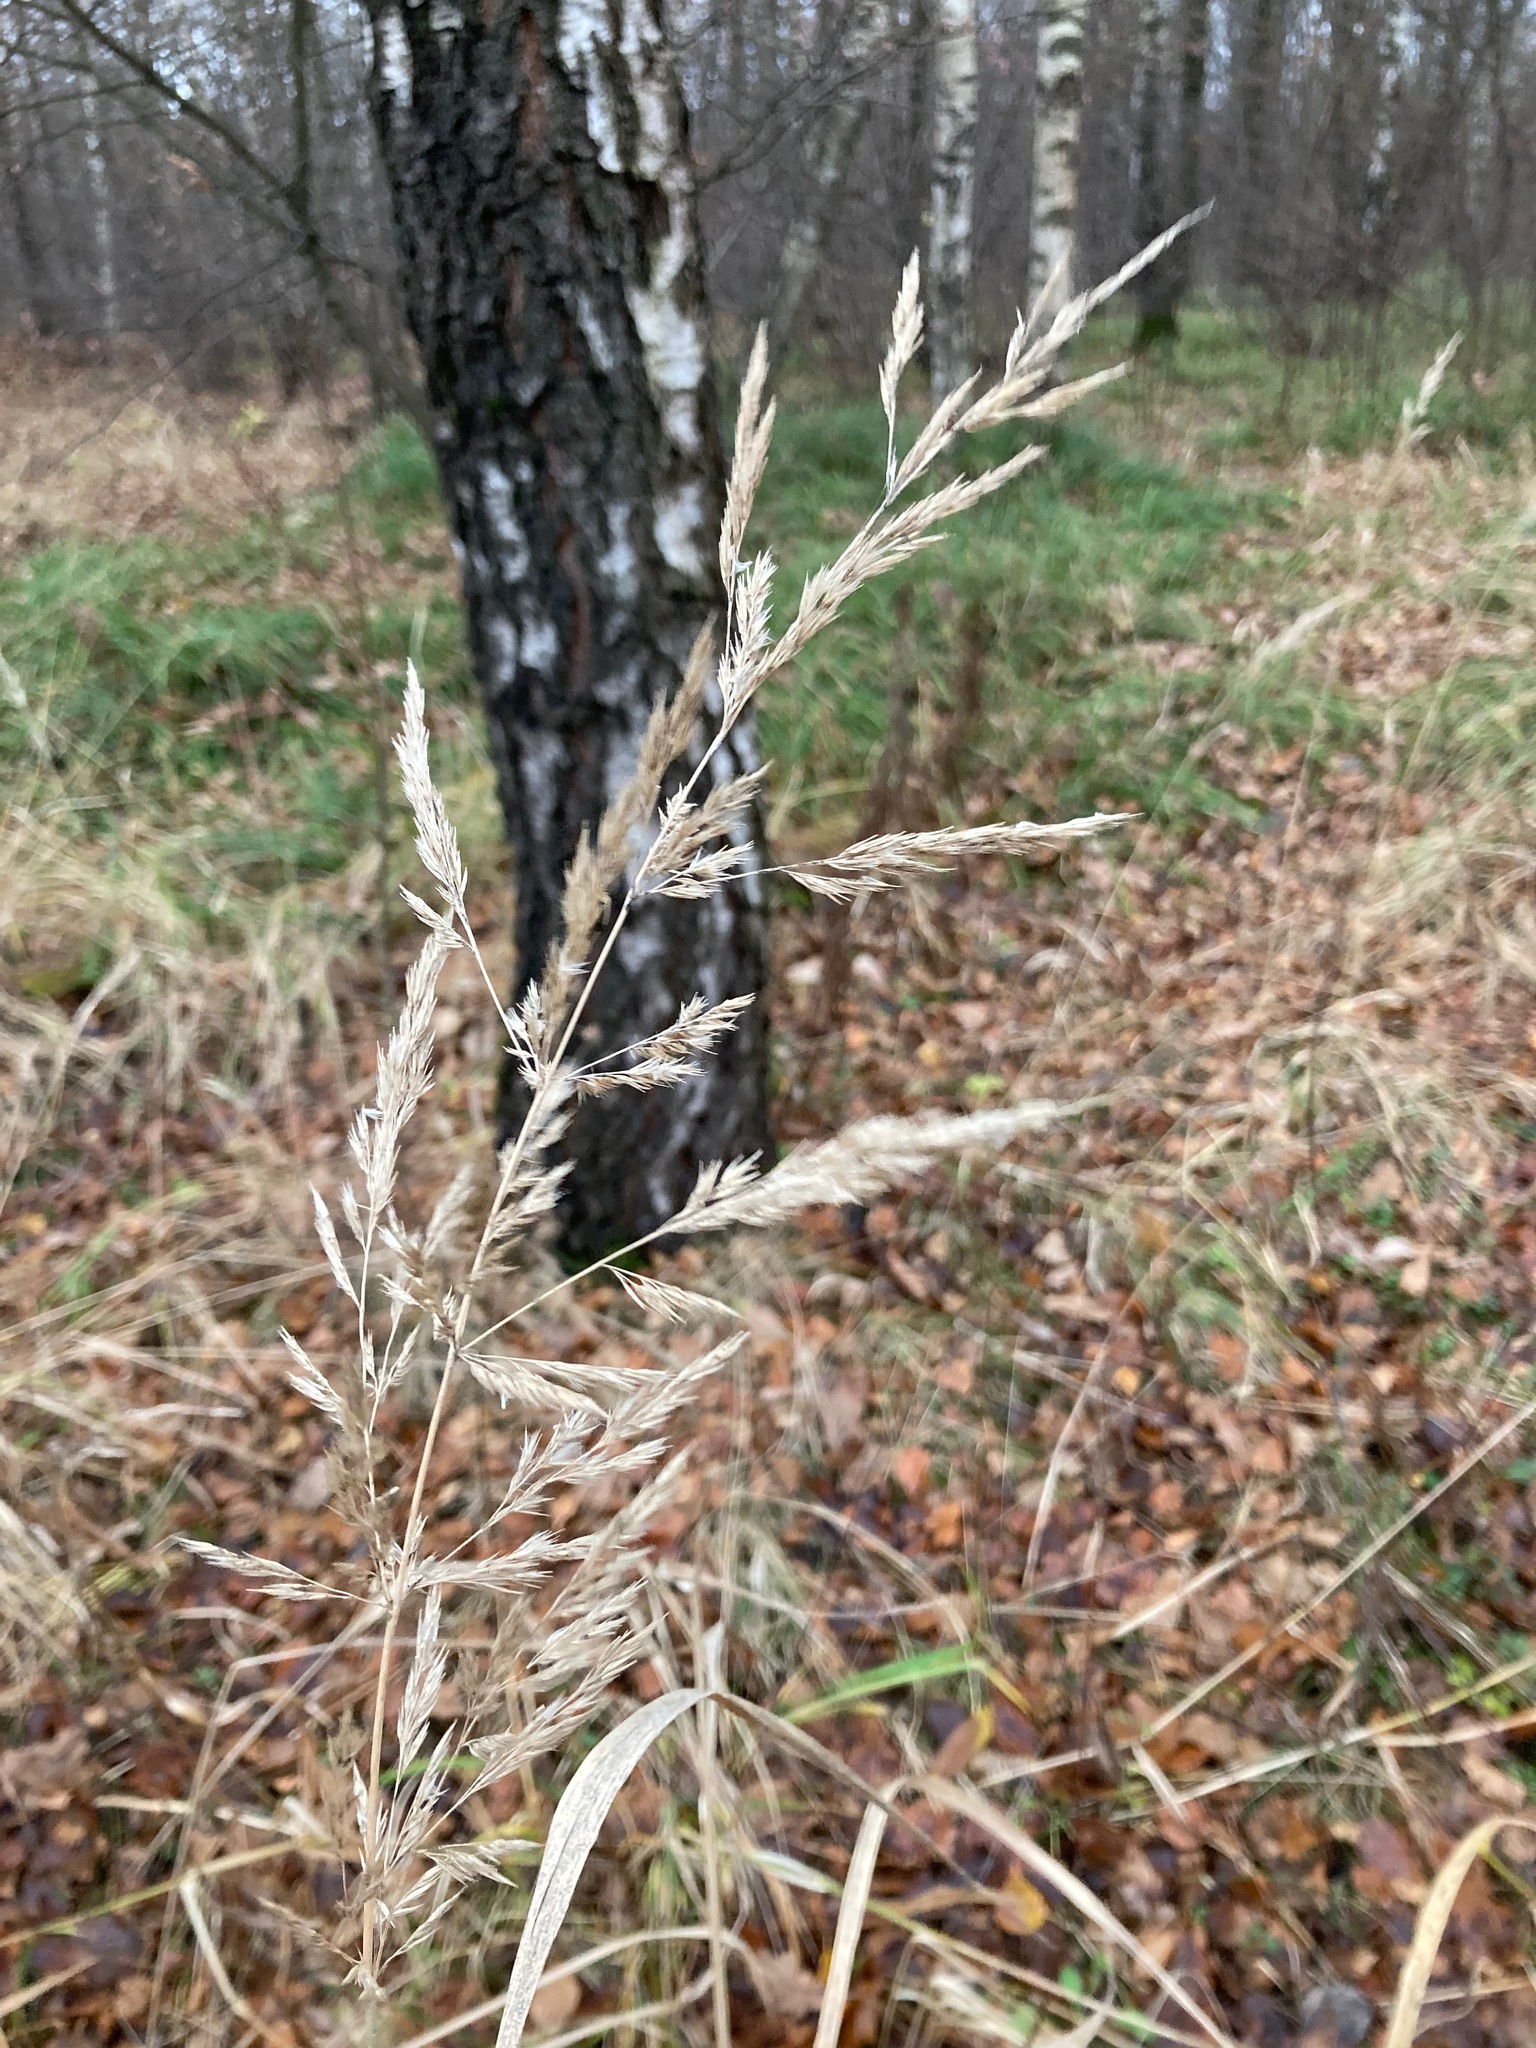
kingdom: Plantae
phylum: Tracheophyta
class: Liliopsida
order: Poales
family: Poaceae
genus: Calamagrostis
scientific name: Calamagrostis epigejos
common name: Wood small-reed
